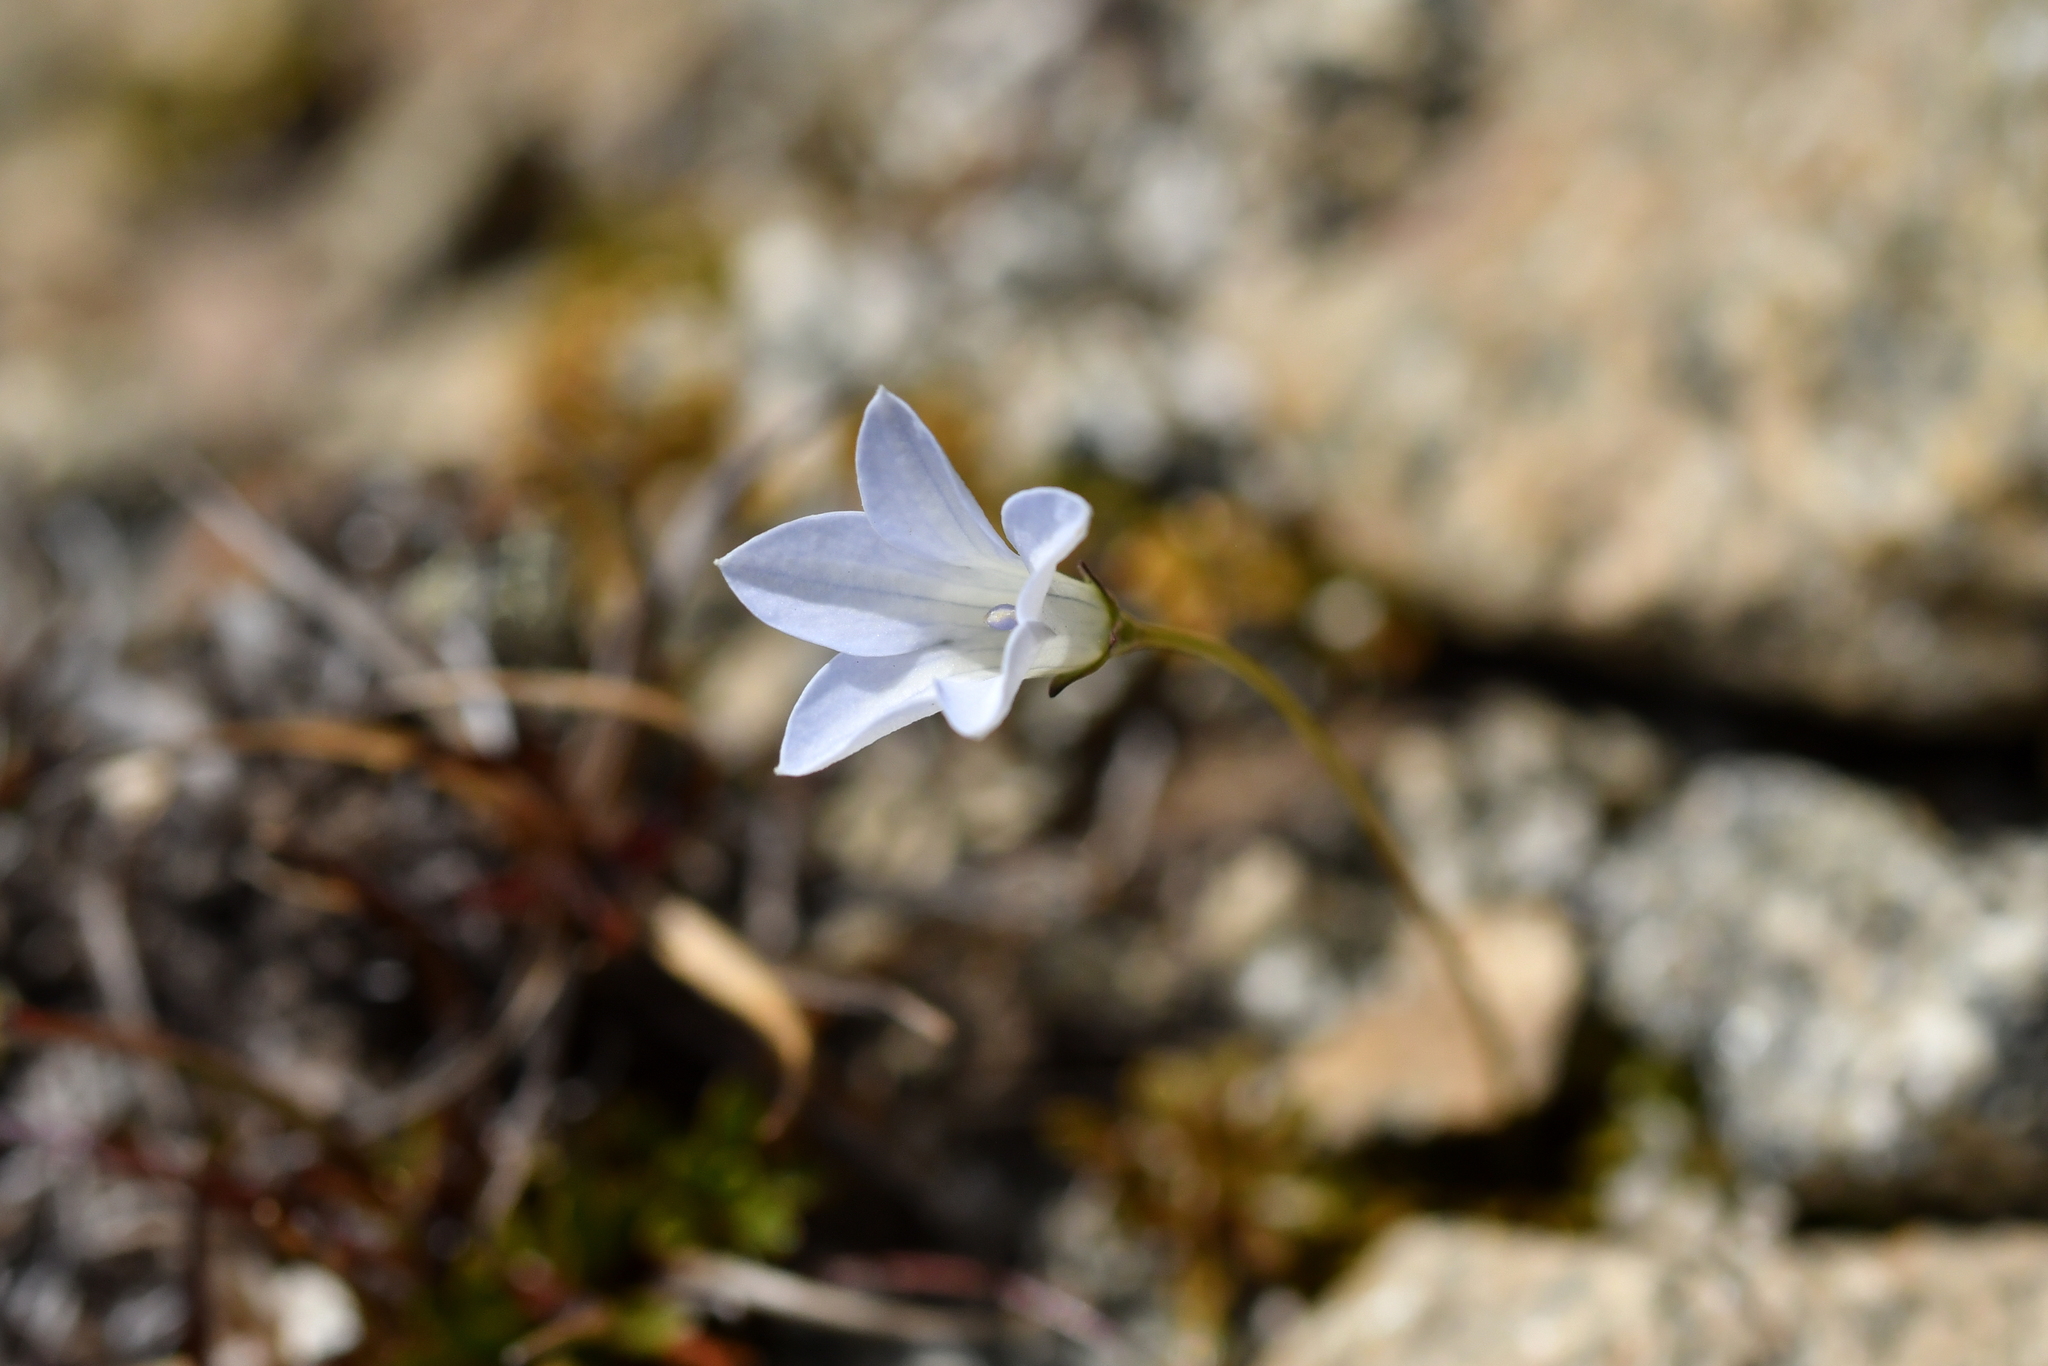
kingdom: Plantae
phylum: Tracheophyta
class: Magnoliopsida
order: Asterales
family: Campanulaceae
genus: Wahlenbergia
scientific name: Wahlenbergia albomarginata
